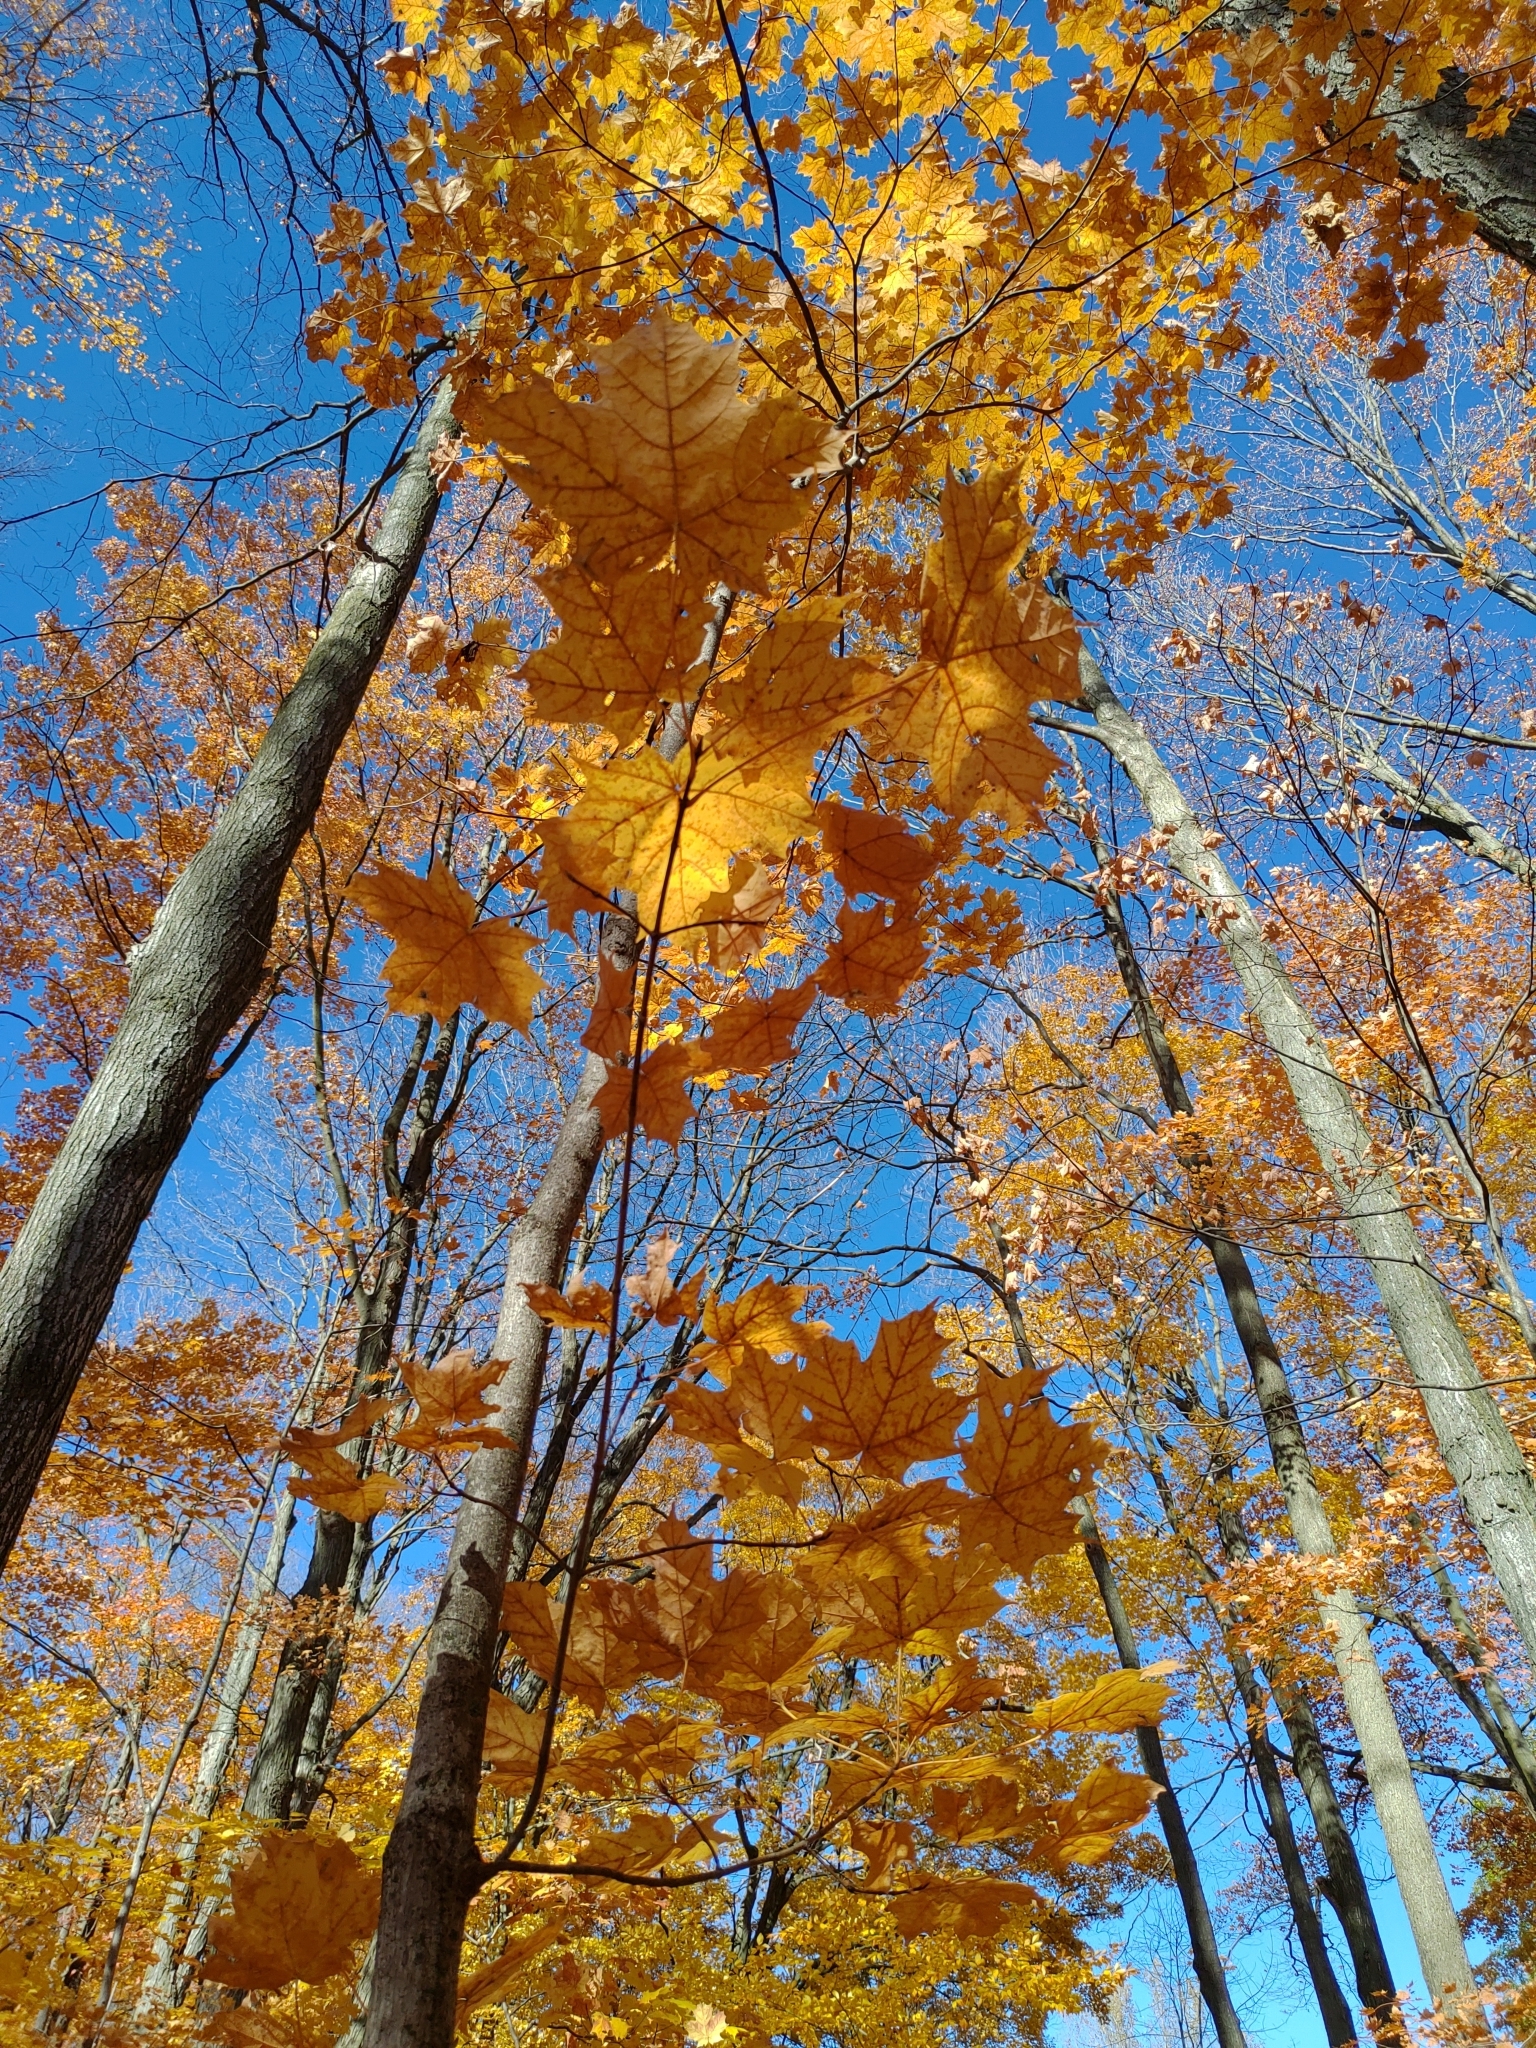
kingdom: Plantae
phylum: Tracheophyta
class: Magnoliopsida
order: Sapindales
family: Sapindaceae
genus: Acer
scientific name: Acer saccharum
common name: Sugar maple
